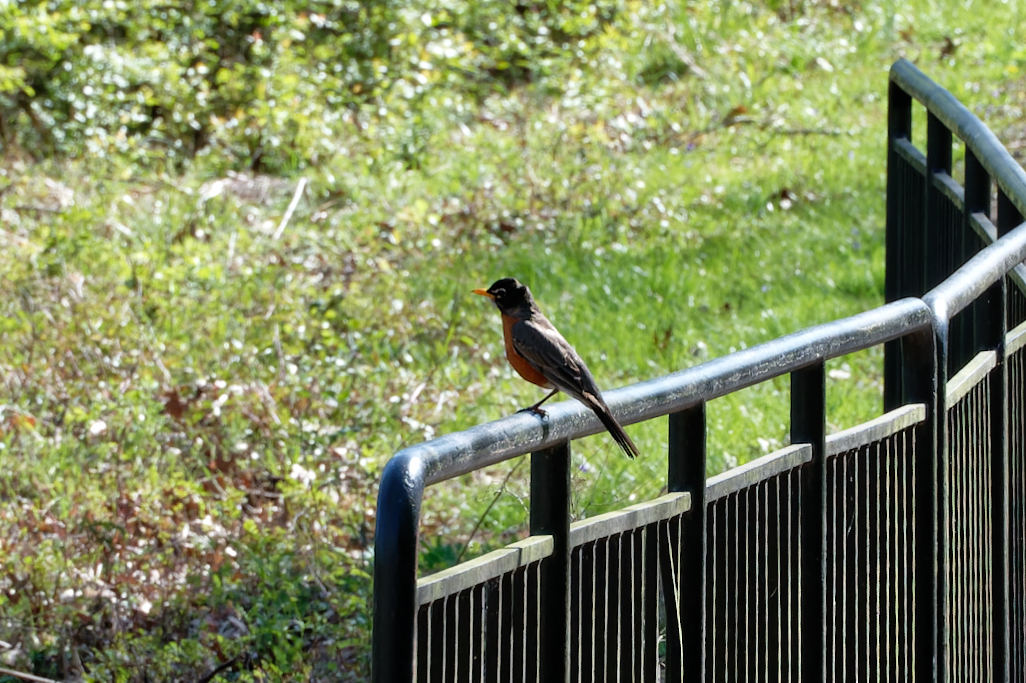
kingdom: Animalia
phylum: Chordata
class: Aves
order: Passeriformes
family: Turdidae
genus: Turdus
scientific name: Turdus migratorius
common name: American robin
